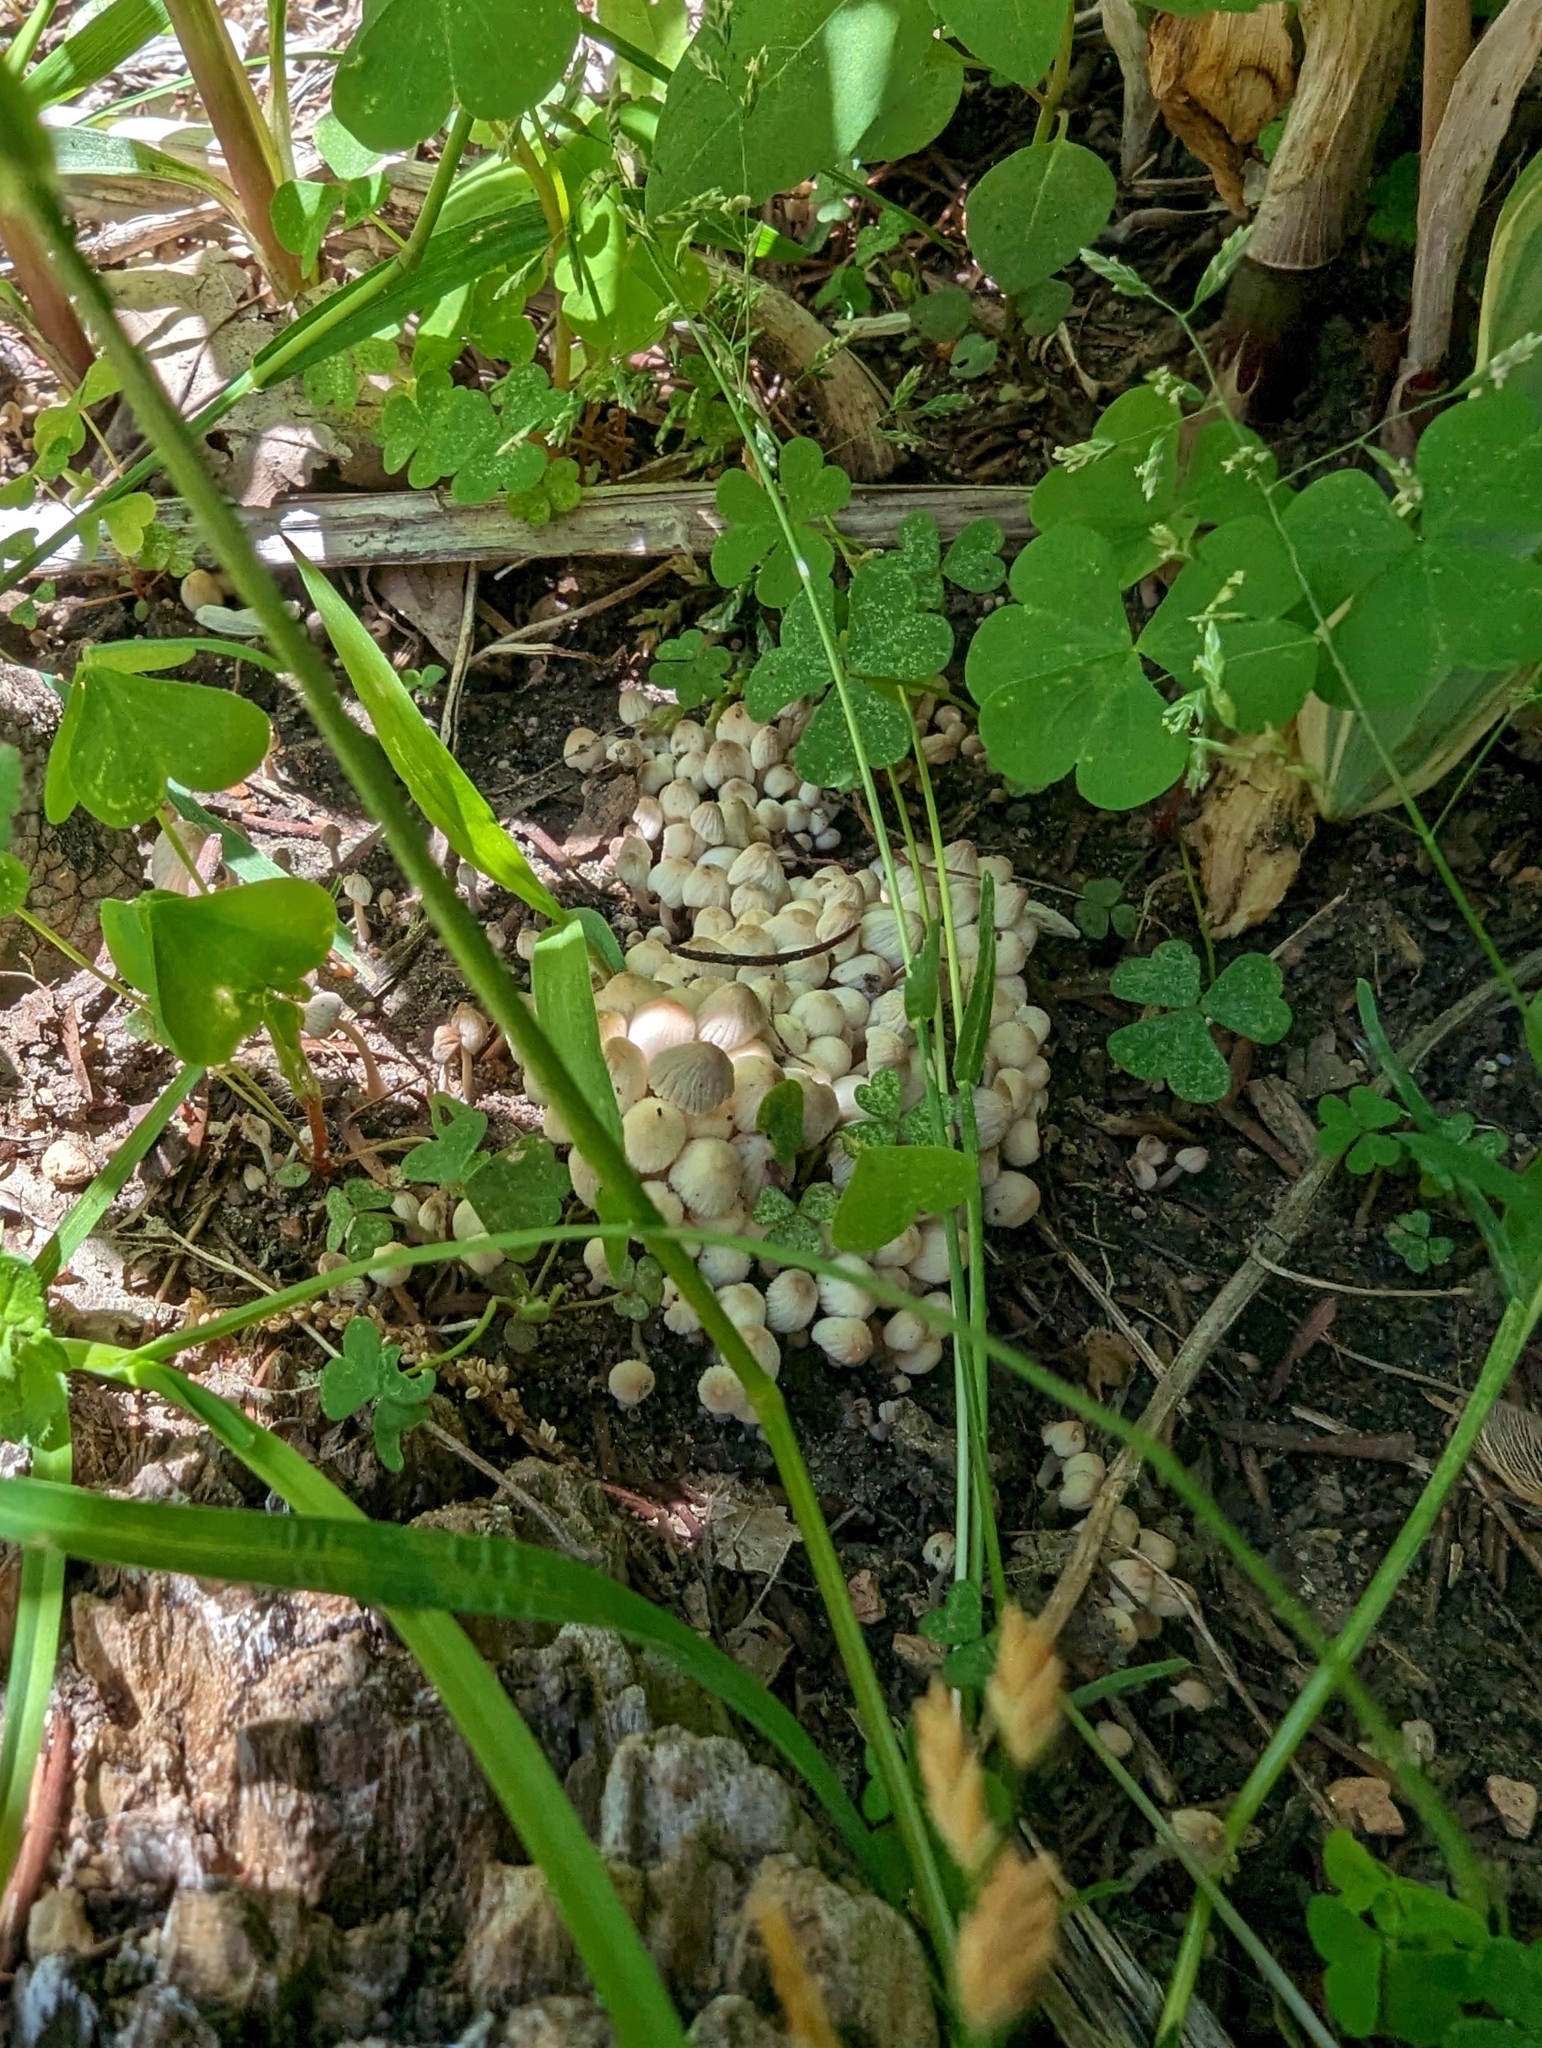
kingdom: Fungi
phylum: Basidiomycota
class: Agaricomycetes
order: Agaricales
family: Psathyrellaceae
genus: Coprinellus
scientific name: Coprinellus disseminatus
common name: Fairies' bonnets
